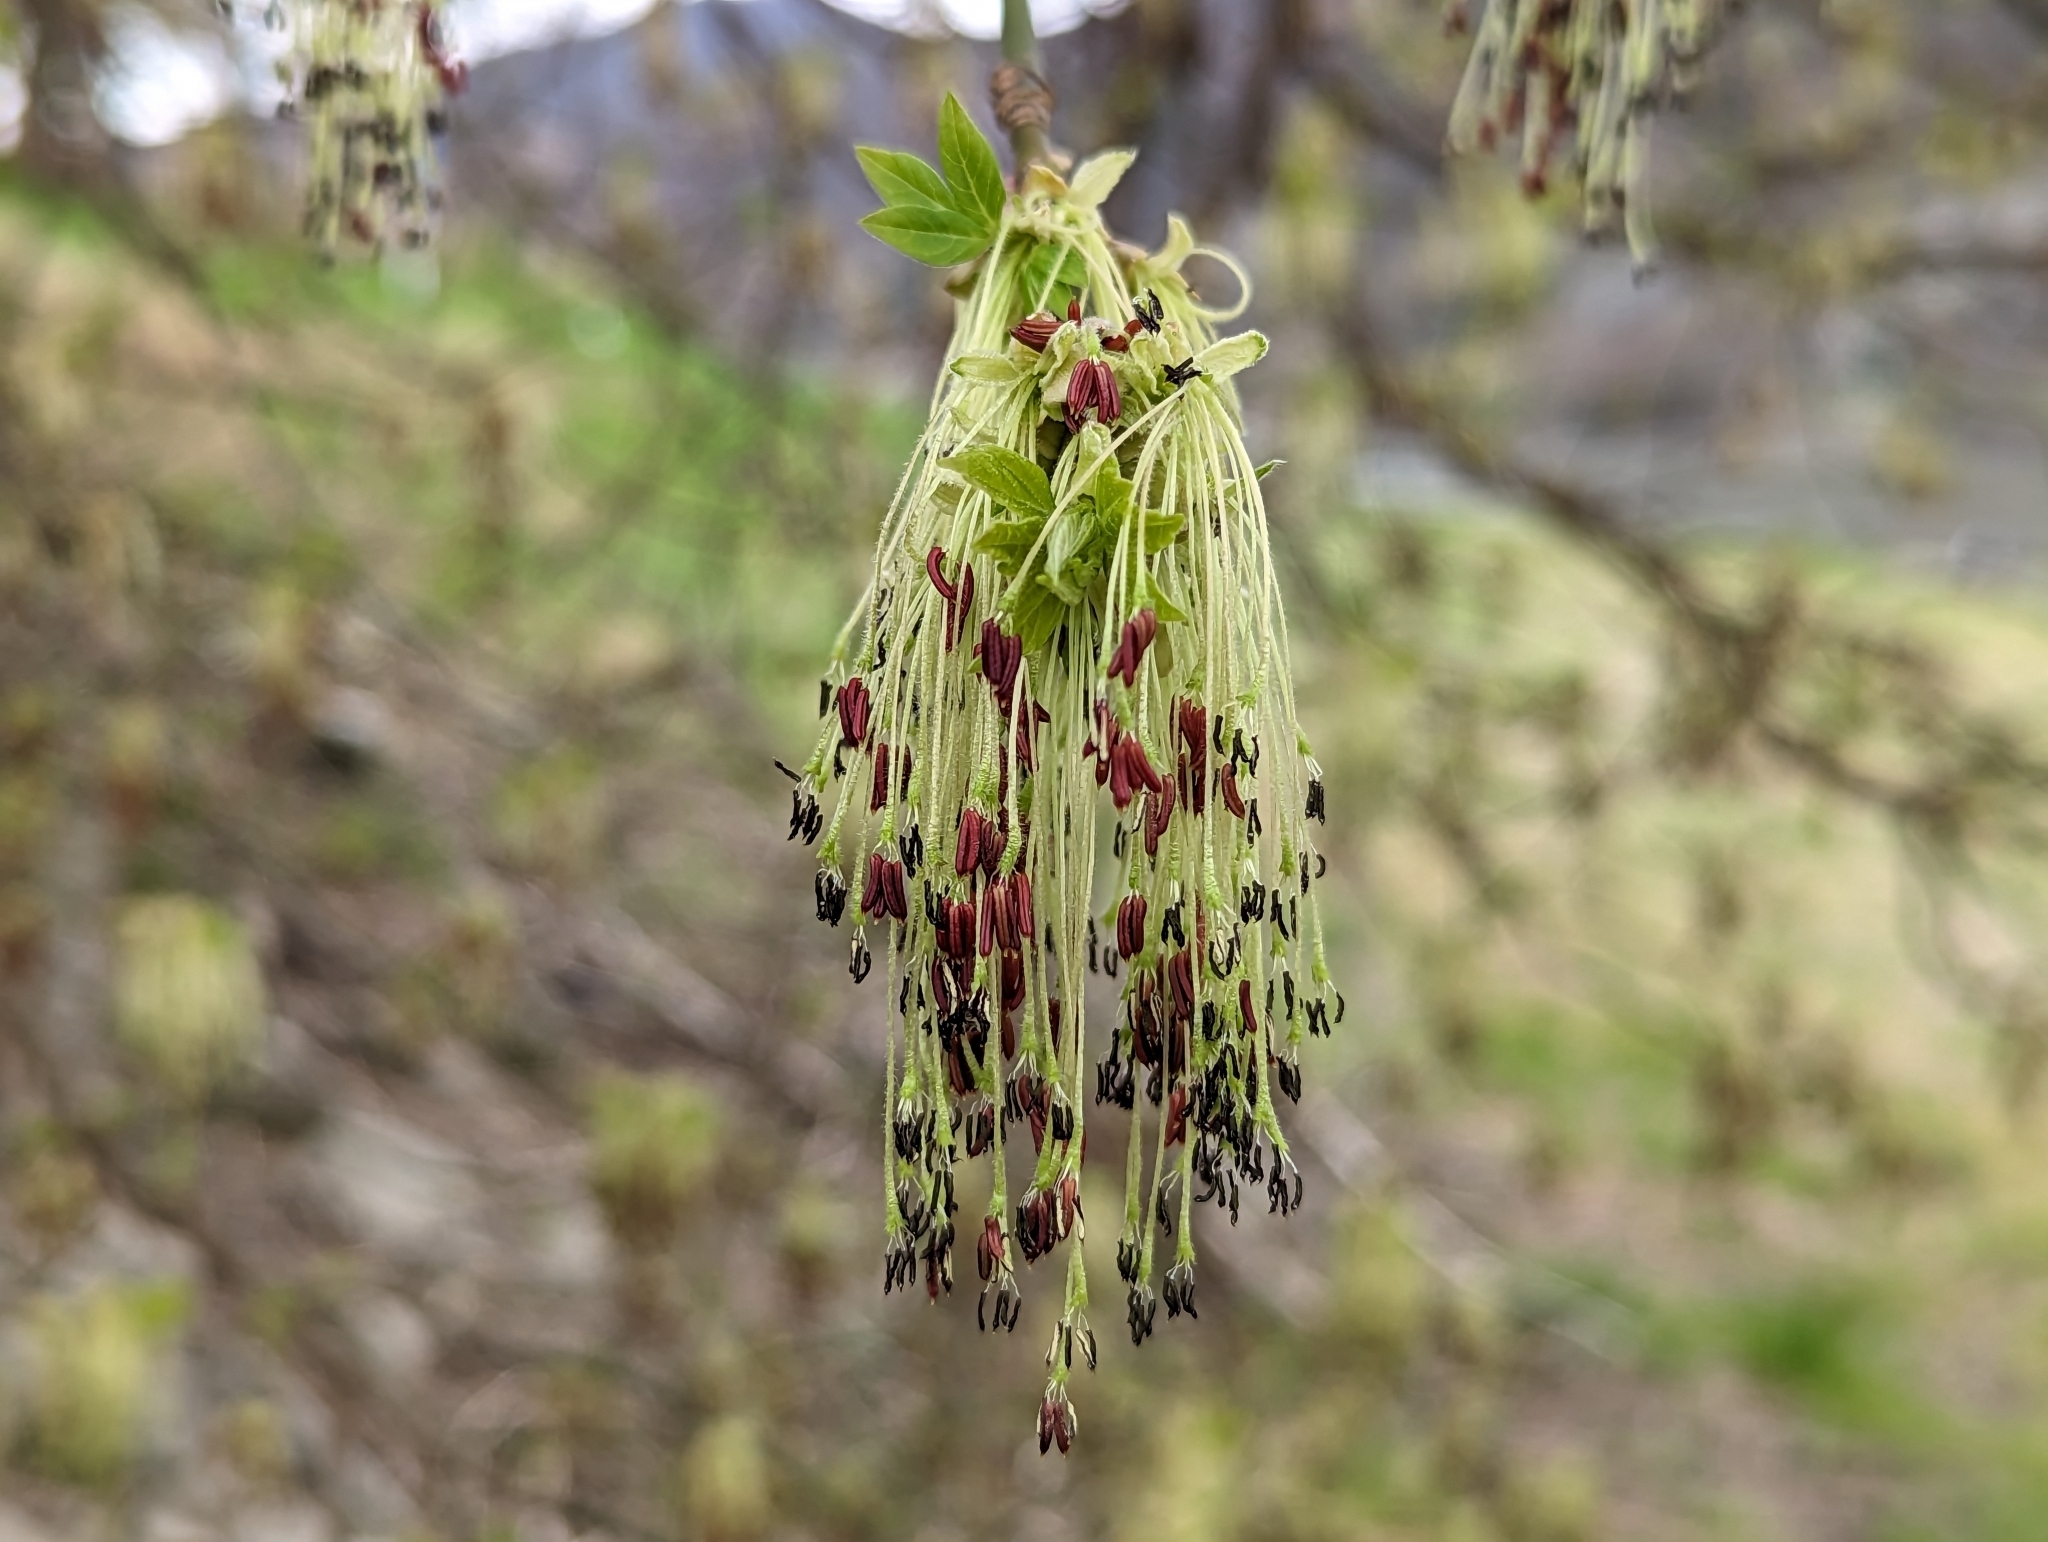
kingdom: Plantae
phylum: Tracheophyta
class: Magnoliopsida
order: Sapindales
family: Sapindaceae
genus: Acer
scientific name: Acer negundo
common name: Ashleaf maple
